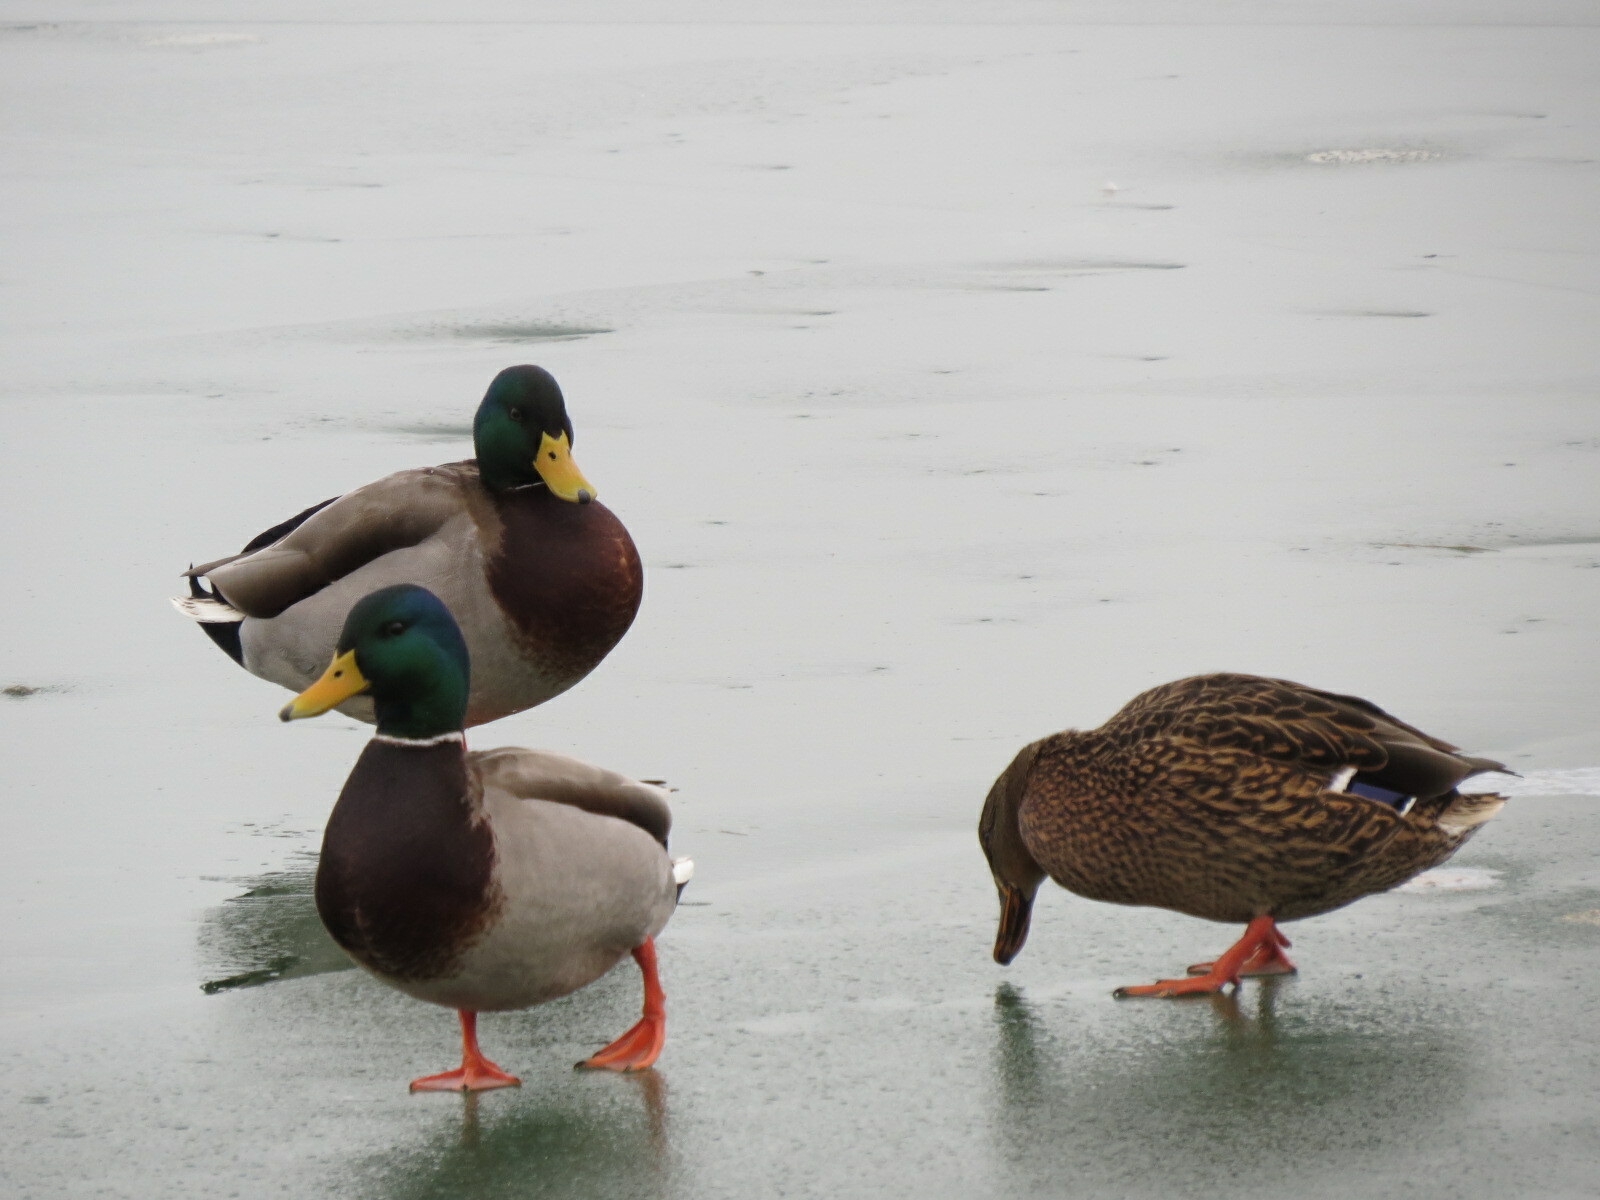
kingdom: Animalia
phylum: Chordata
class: Aves
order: Anseriformes
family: Anatidae
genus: Anas
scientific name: Anas platyrhynchos
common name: Mallard
